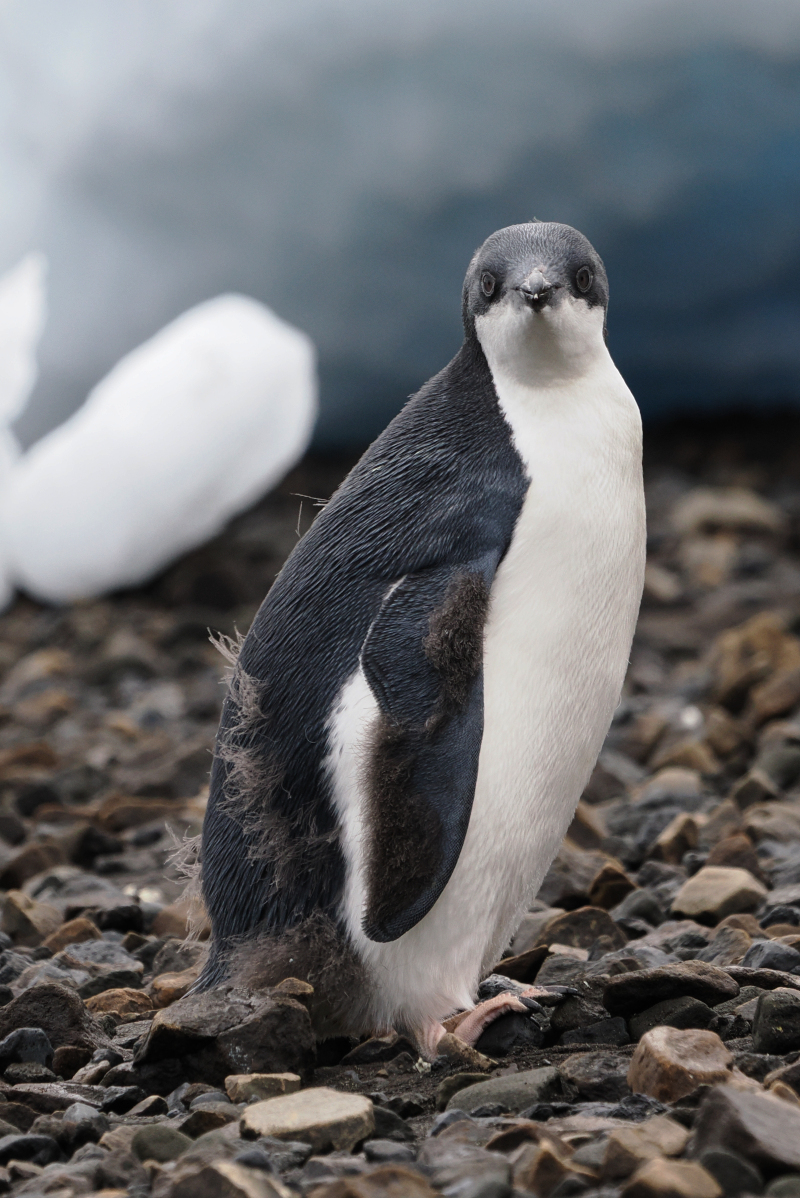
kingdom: Animalia
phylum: Chordata
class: Aves
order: Sphenisciformes
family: Spheniscidae
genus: Pygoscelis
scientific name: Pygoscelis adeliae
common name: Adelie penguin
